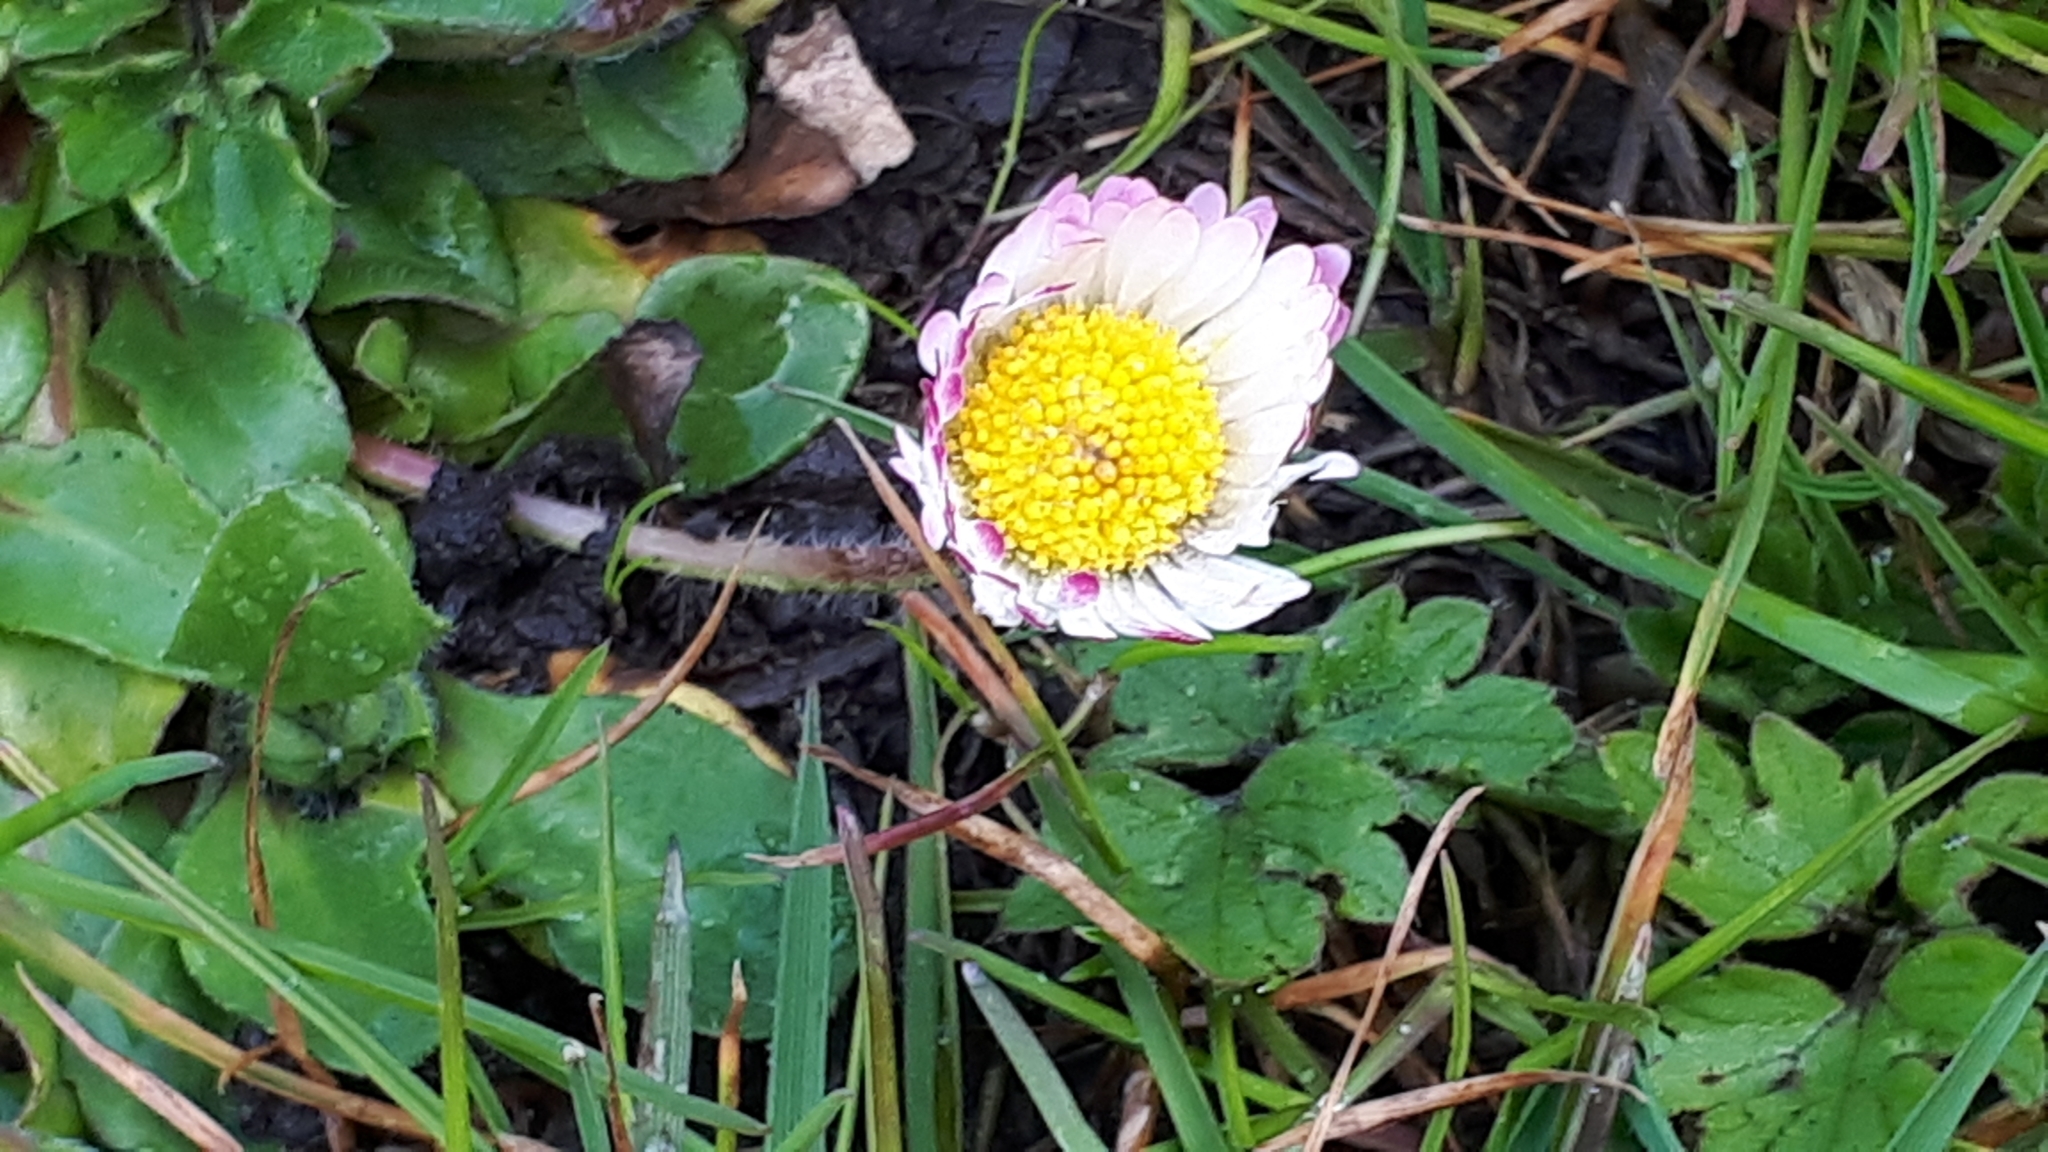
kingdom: Plantae
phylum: Tracheophyta
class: Magnoliopsida
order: Asterales
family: Asteraceae
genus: Bellis
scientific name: Bellis perennis
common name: Lawndaisy
